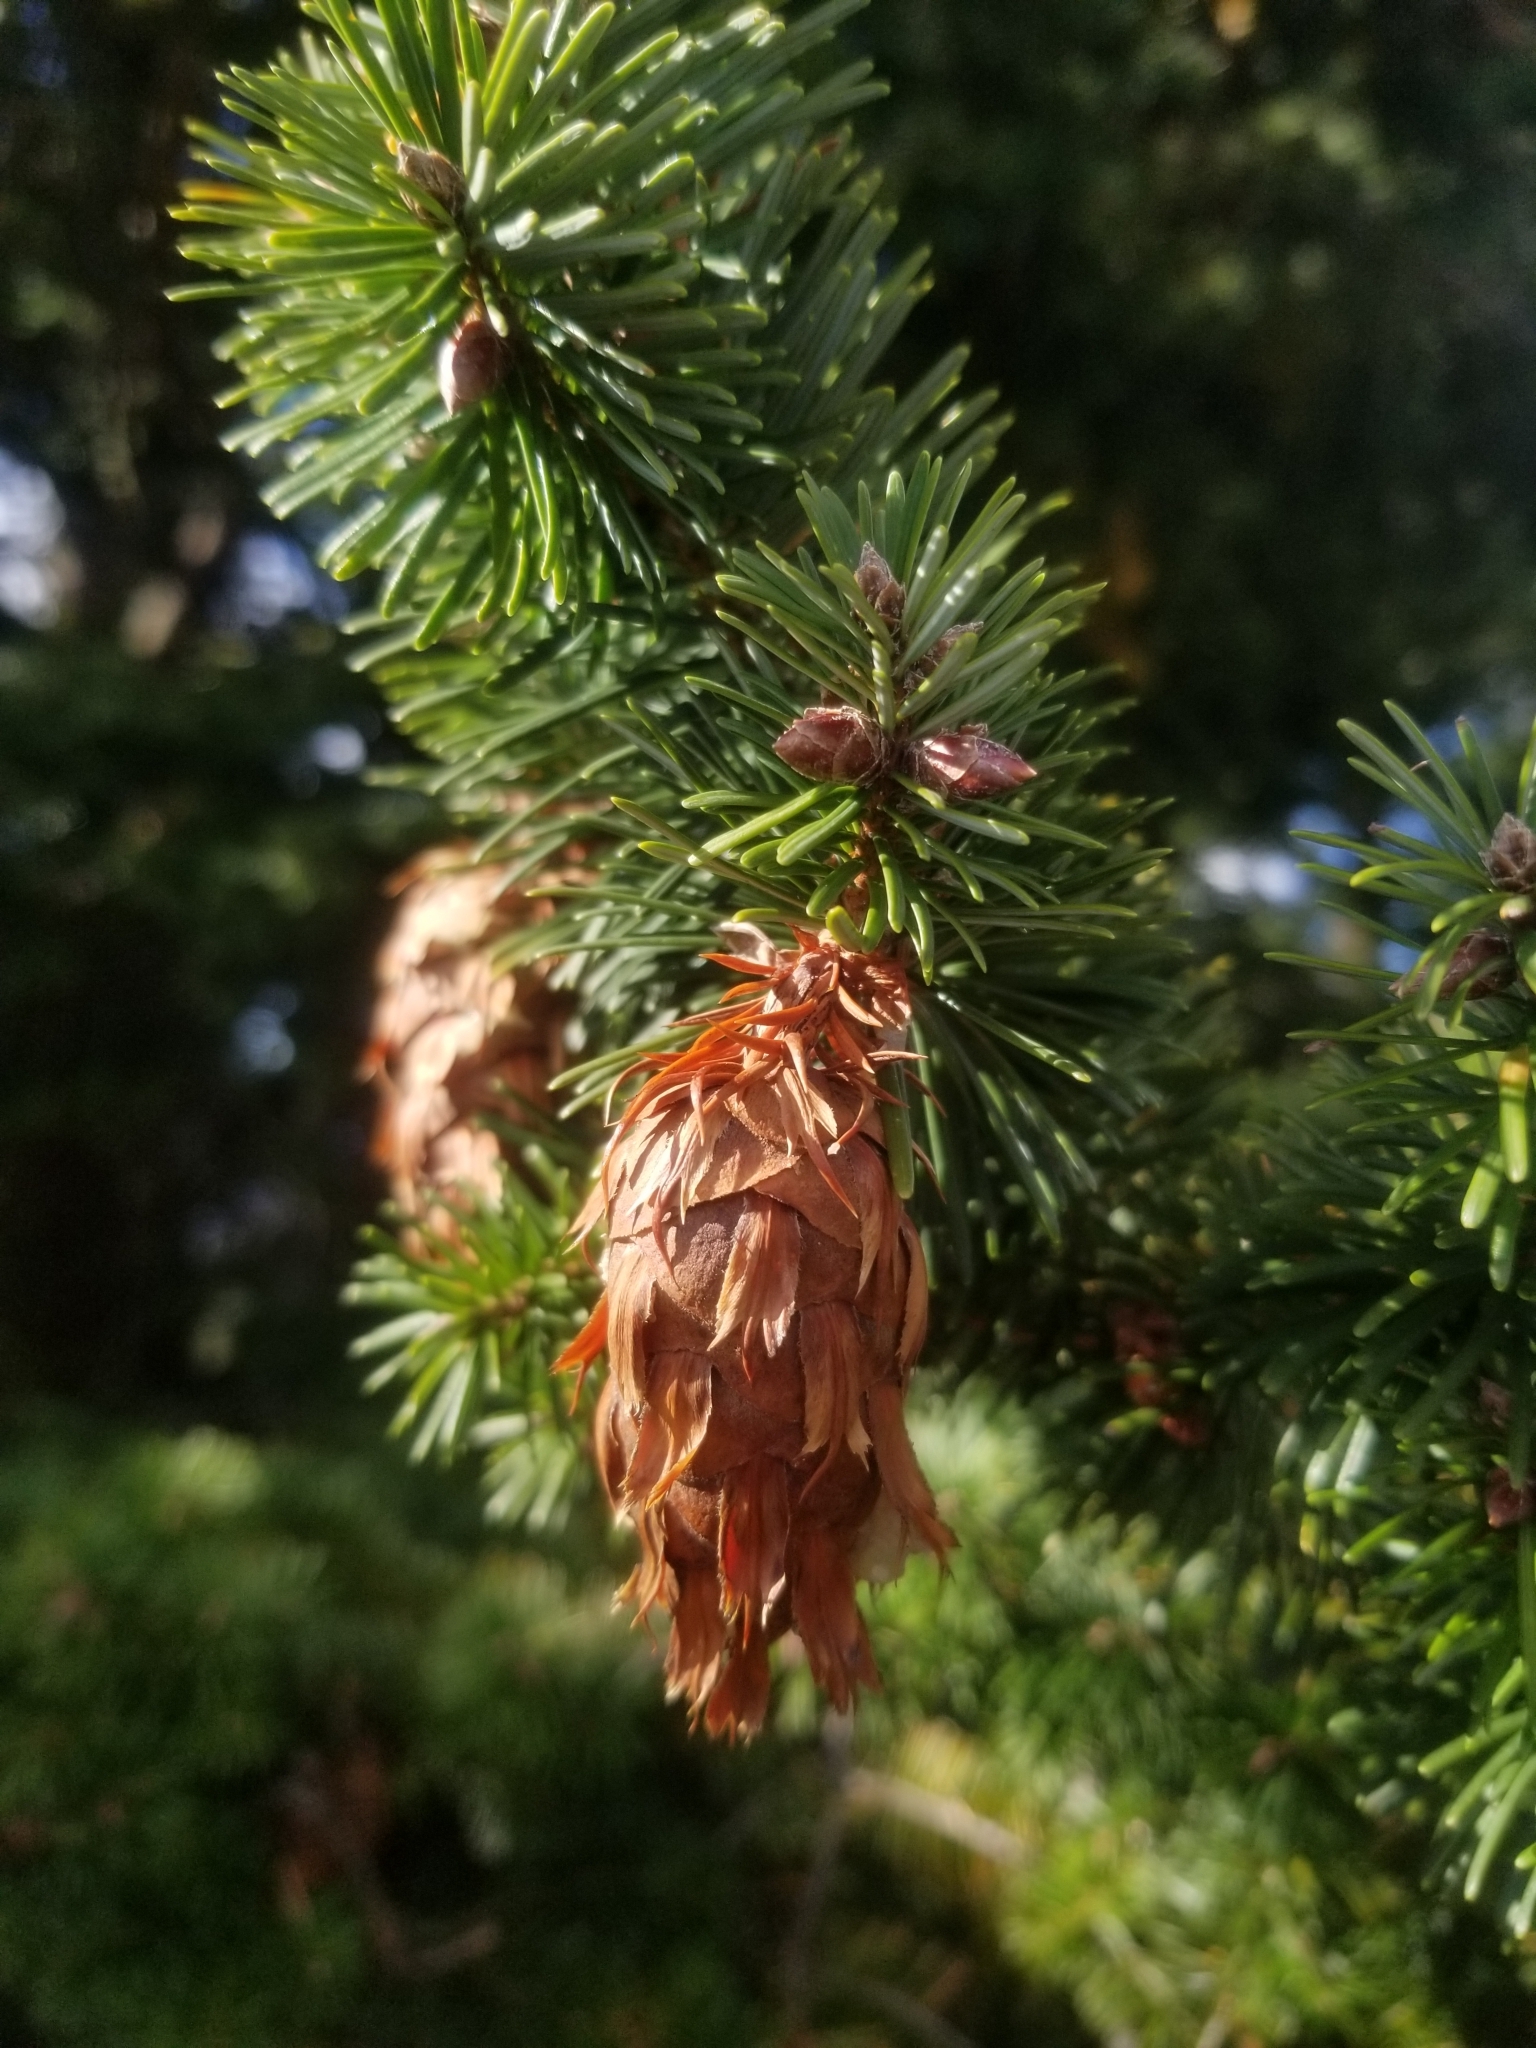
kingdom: Plantae
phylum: Tracheophyta
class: Pinopsida
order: Pinales
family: Pinaceae
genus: Pseudotsuga
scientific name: Pseudotsuga menziesii
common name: Douglas fir
